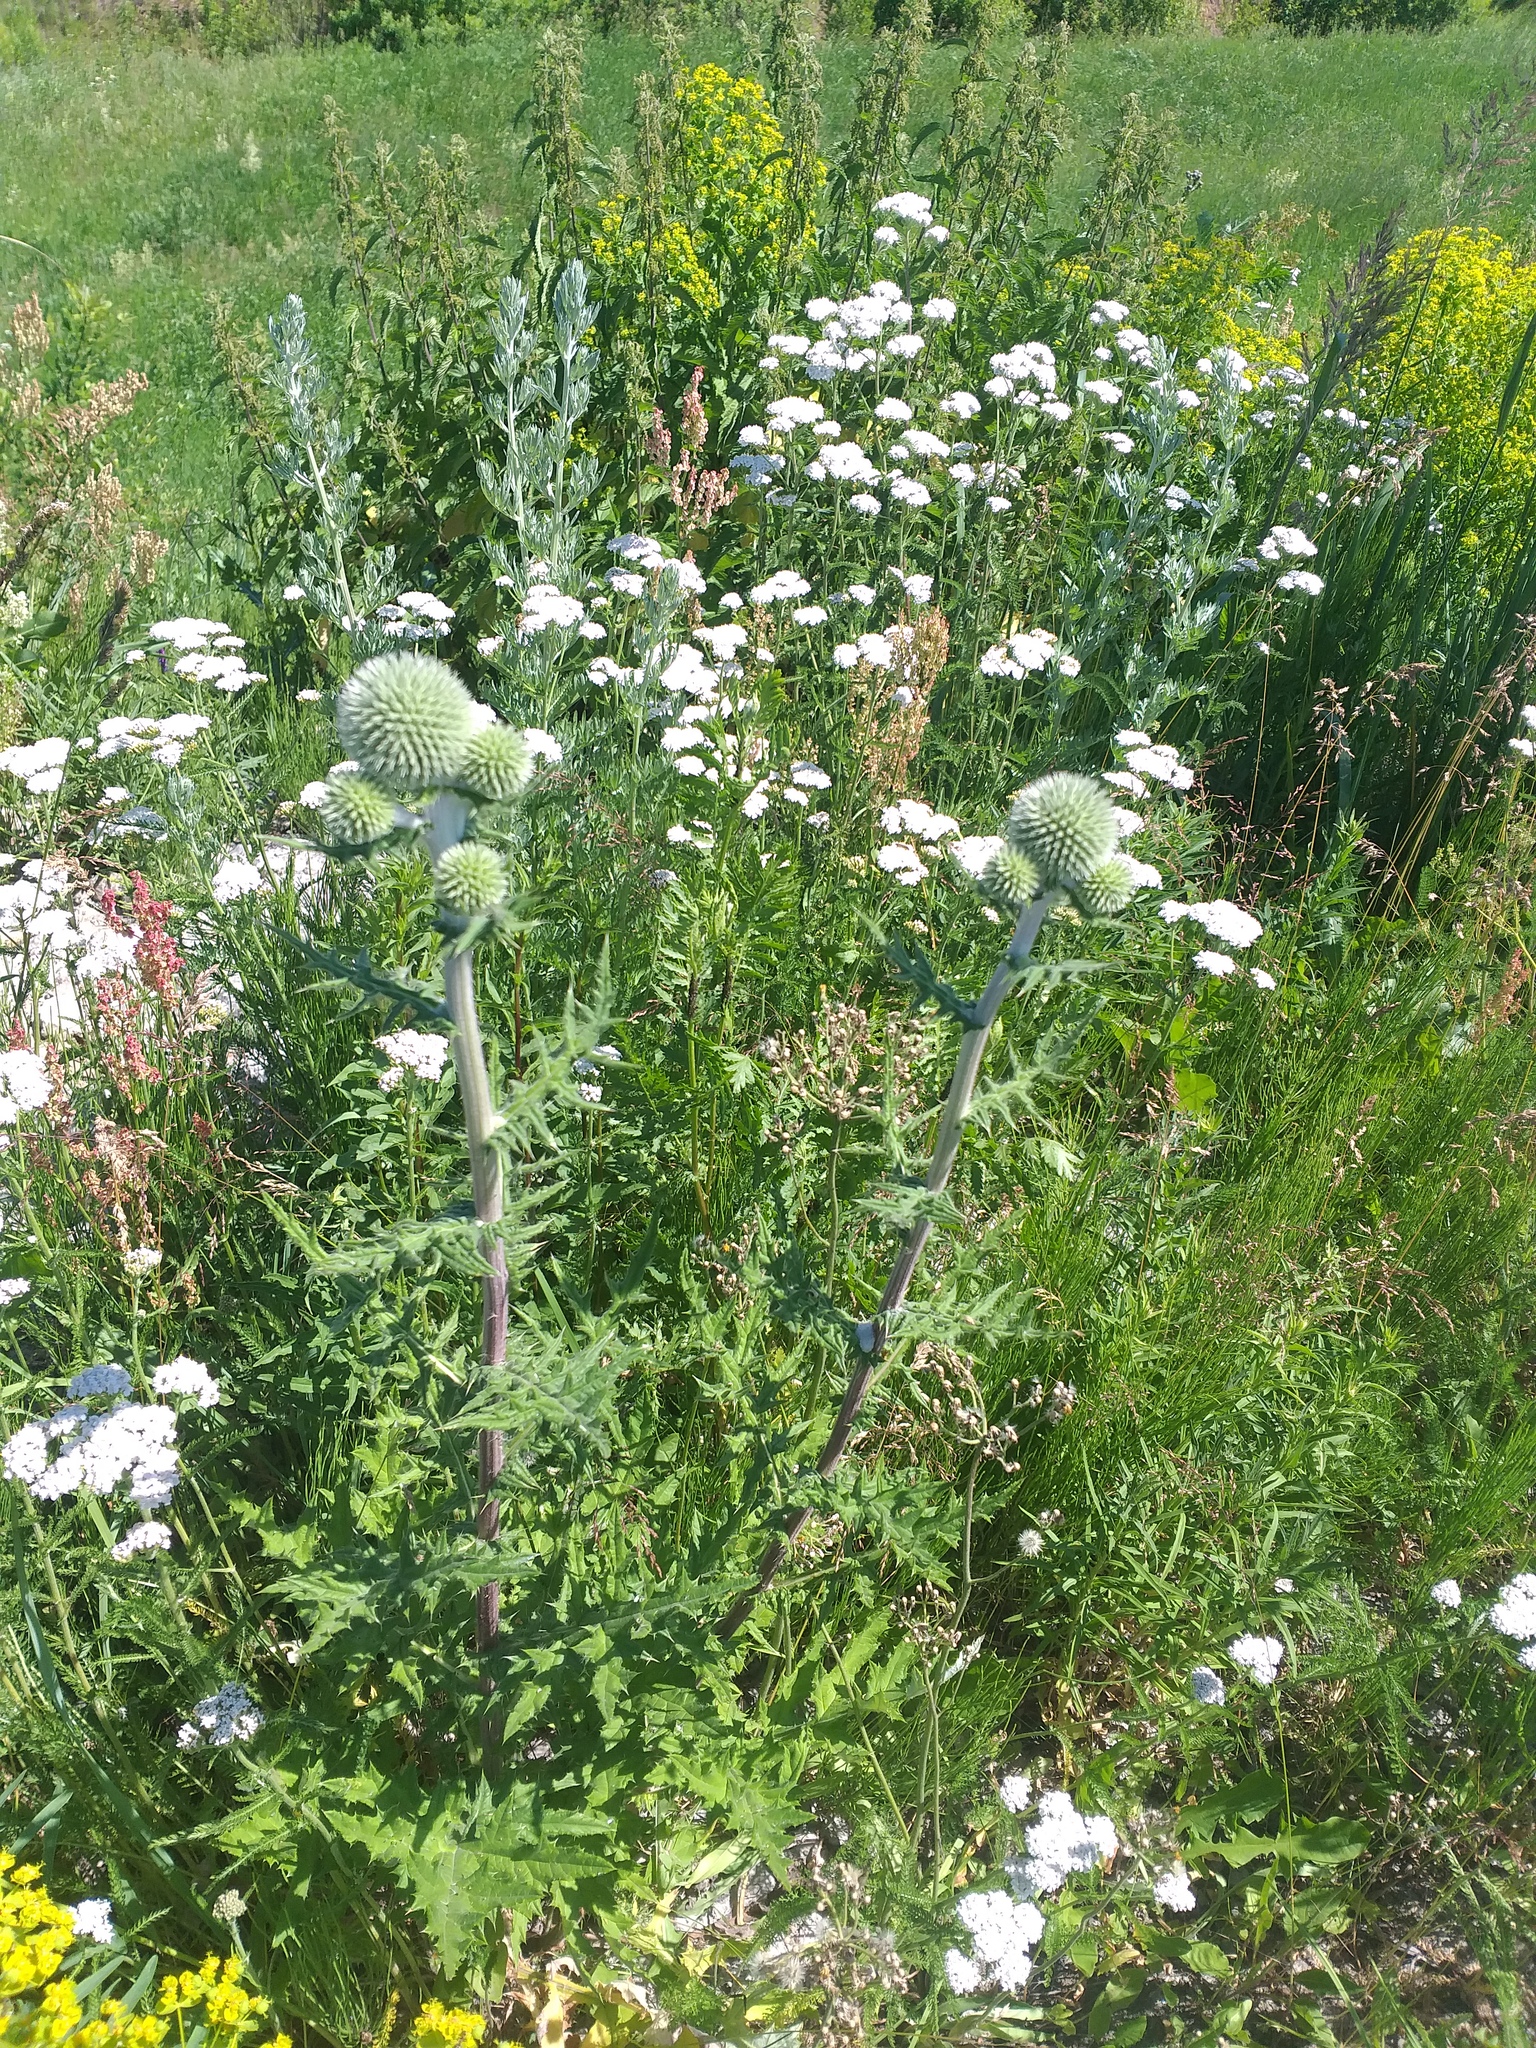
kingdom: Plantae
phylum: Tracheophyta
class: Magnoliopsida
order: Asterales
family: Asteraceae
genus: Echinops
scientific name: Echinops sphaerocephalus
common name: Glandular globe-thistle
